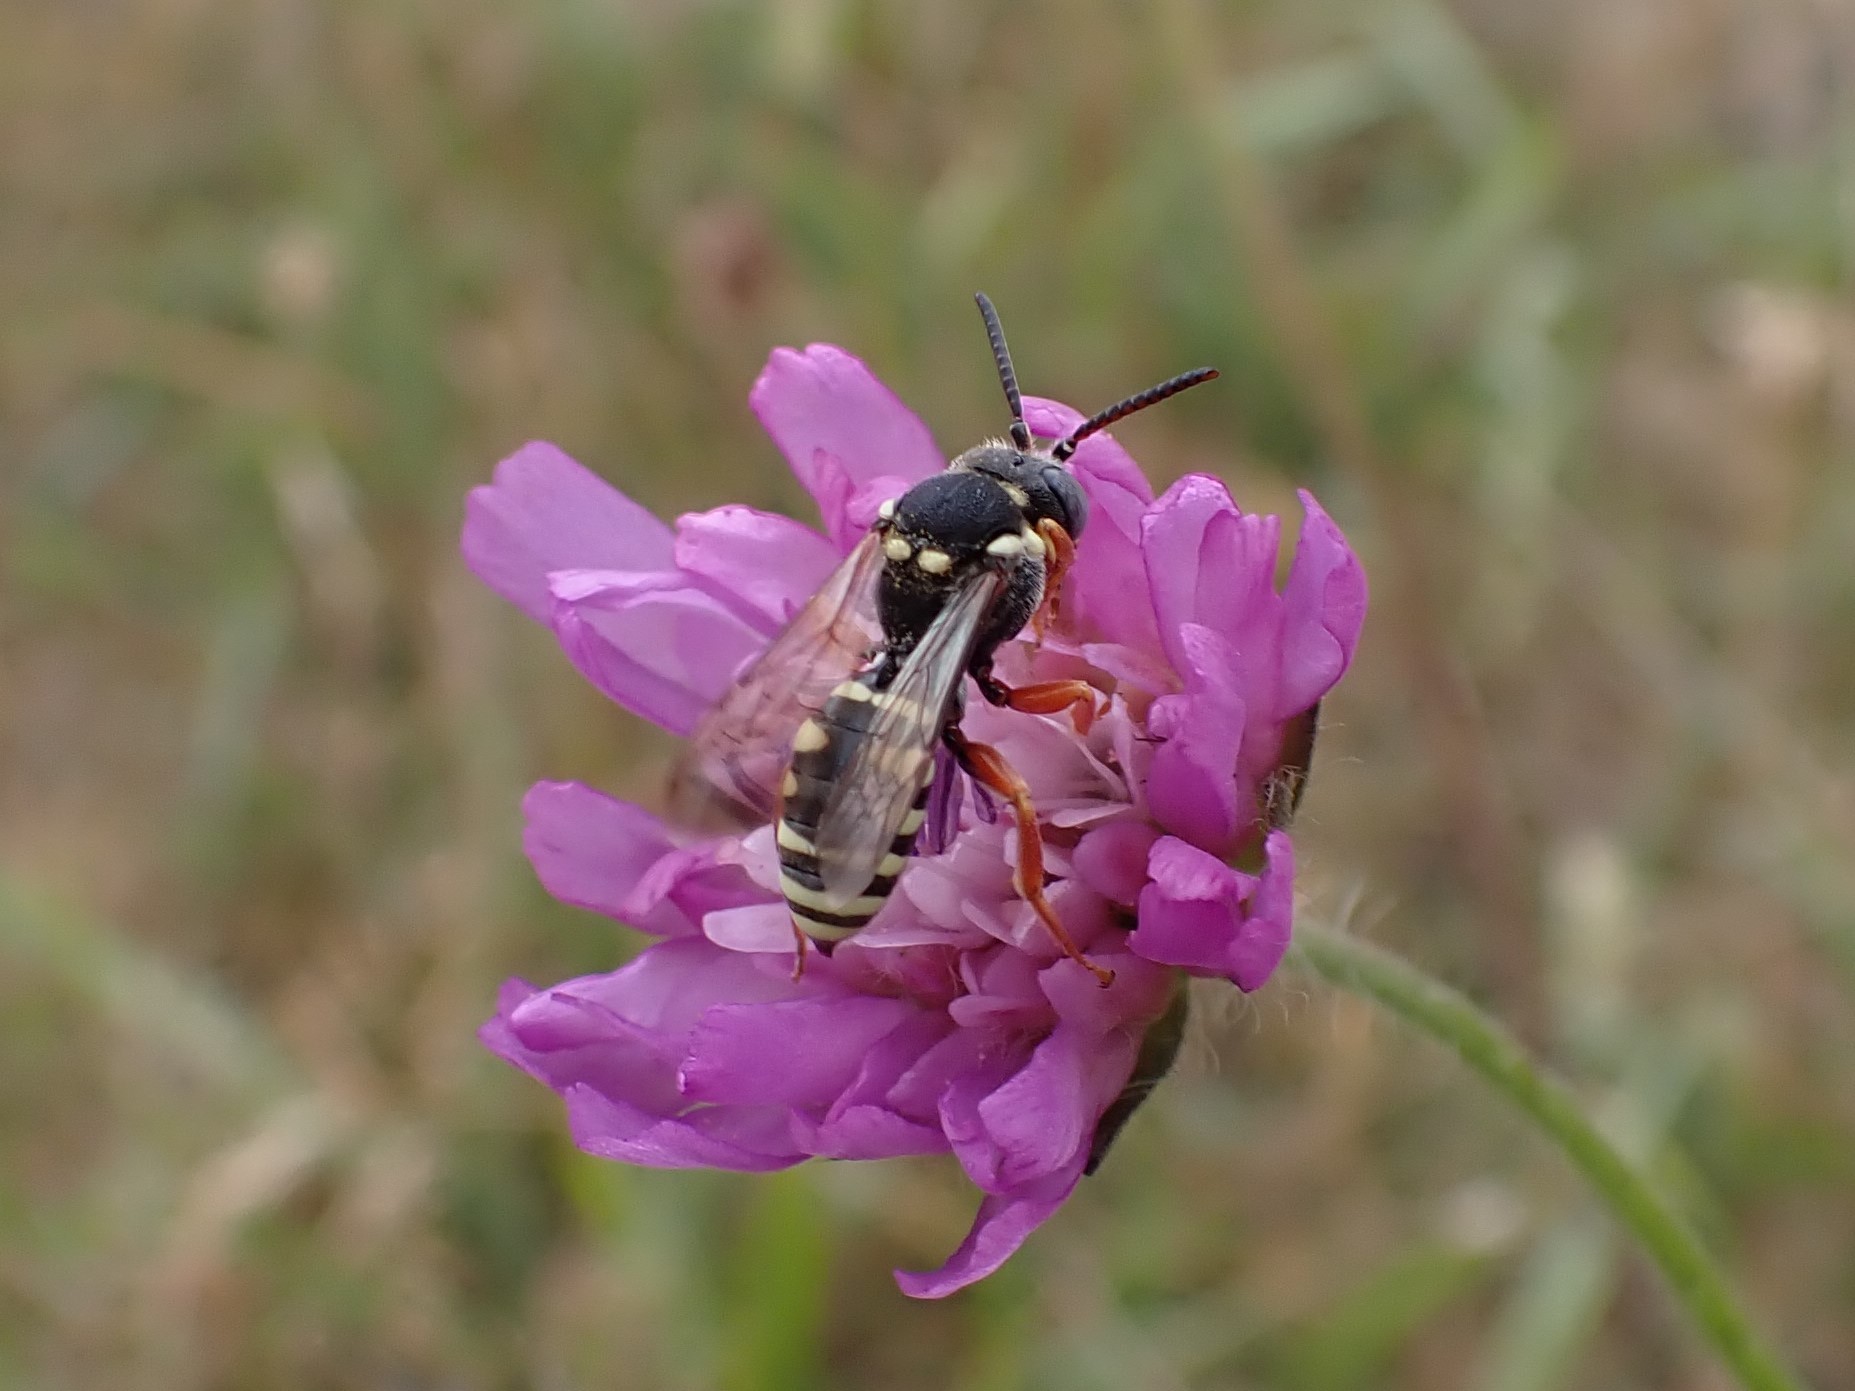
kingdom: Animalia
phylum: Arthropoda
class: Insecta
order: Hymenoptera
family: Apidae
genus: Nomada
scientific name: Nomada flavopicta
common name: Blunthorn nomad bee
